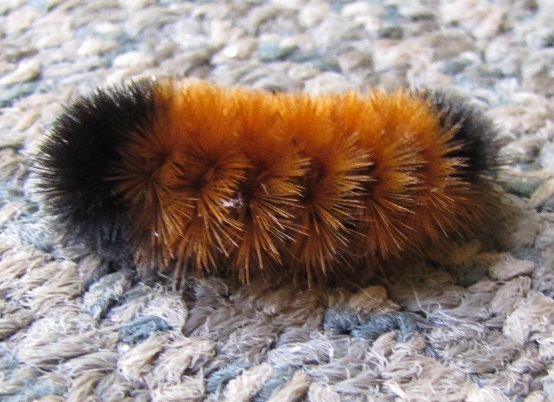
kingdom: Animalia
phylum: Arthropoda
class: Insecta
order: Lepidoptera
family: Erebidae
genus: Pyrrharctia
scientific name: Pyrrharctia isabella
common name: Isabella tiger moth
